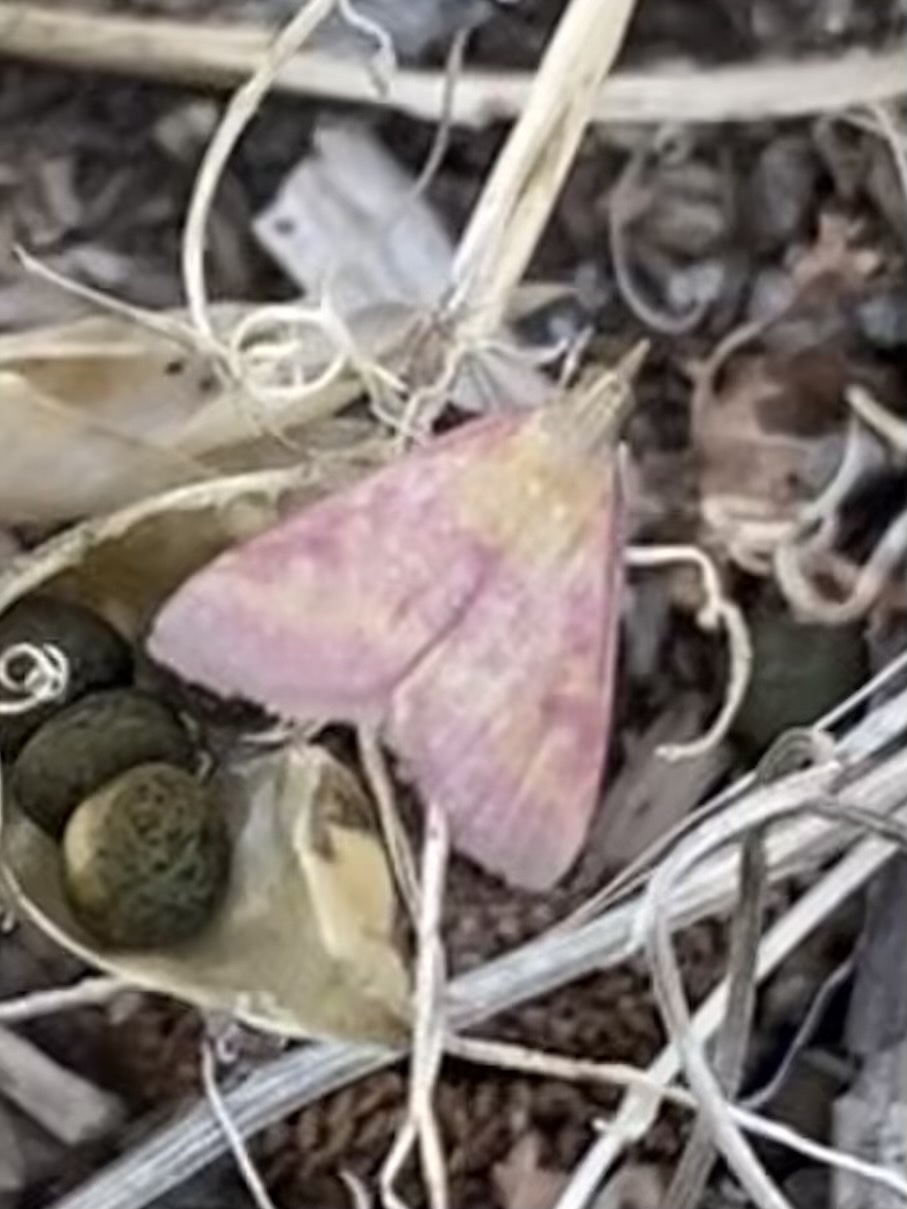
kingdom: Animalia
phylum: Arthropoda
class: Insecta
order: Lepidoptera
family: Crambidae
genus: Pyrausta
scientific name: Pyrausta laticlavia
